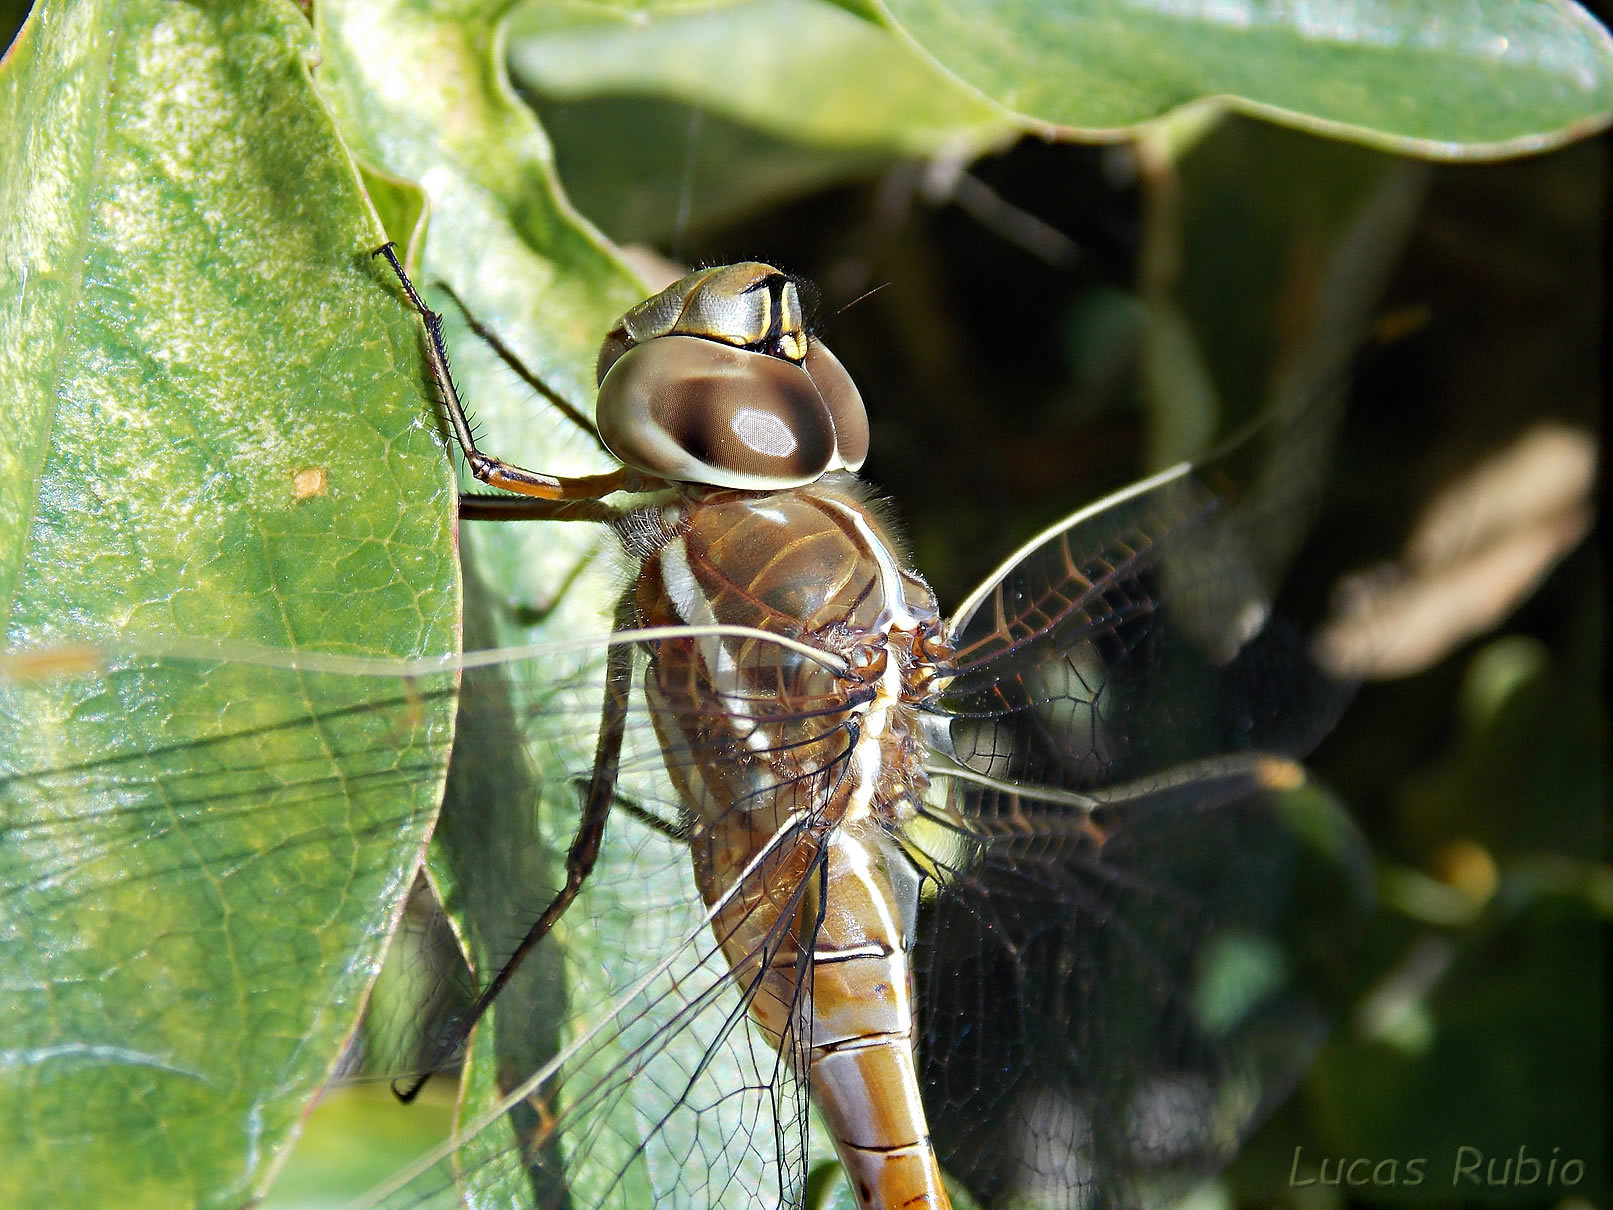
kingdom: Animalia
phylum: Arthropoda
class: Insecta
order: Odonata
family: Aeshnidae
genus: Rhionaeschna
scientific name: Rhionaeschna bonariensis
